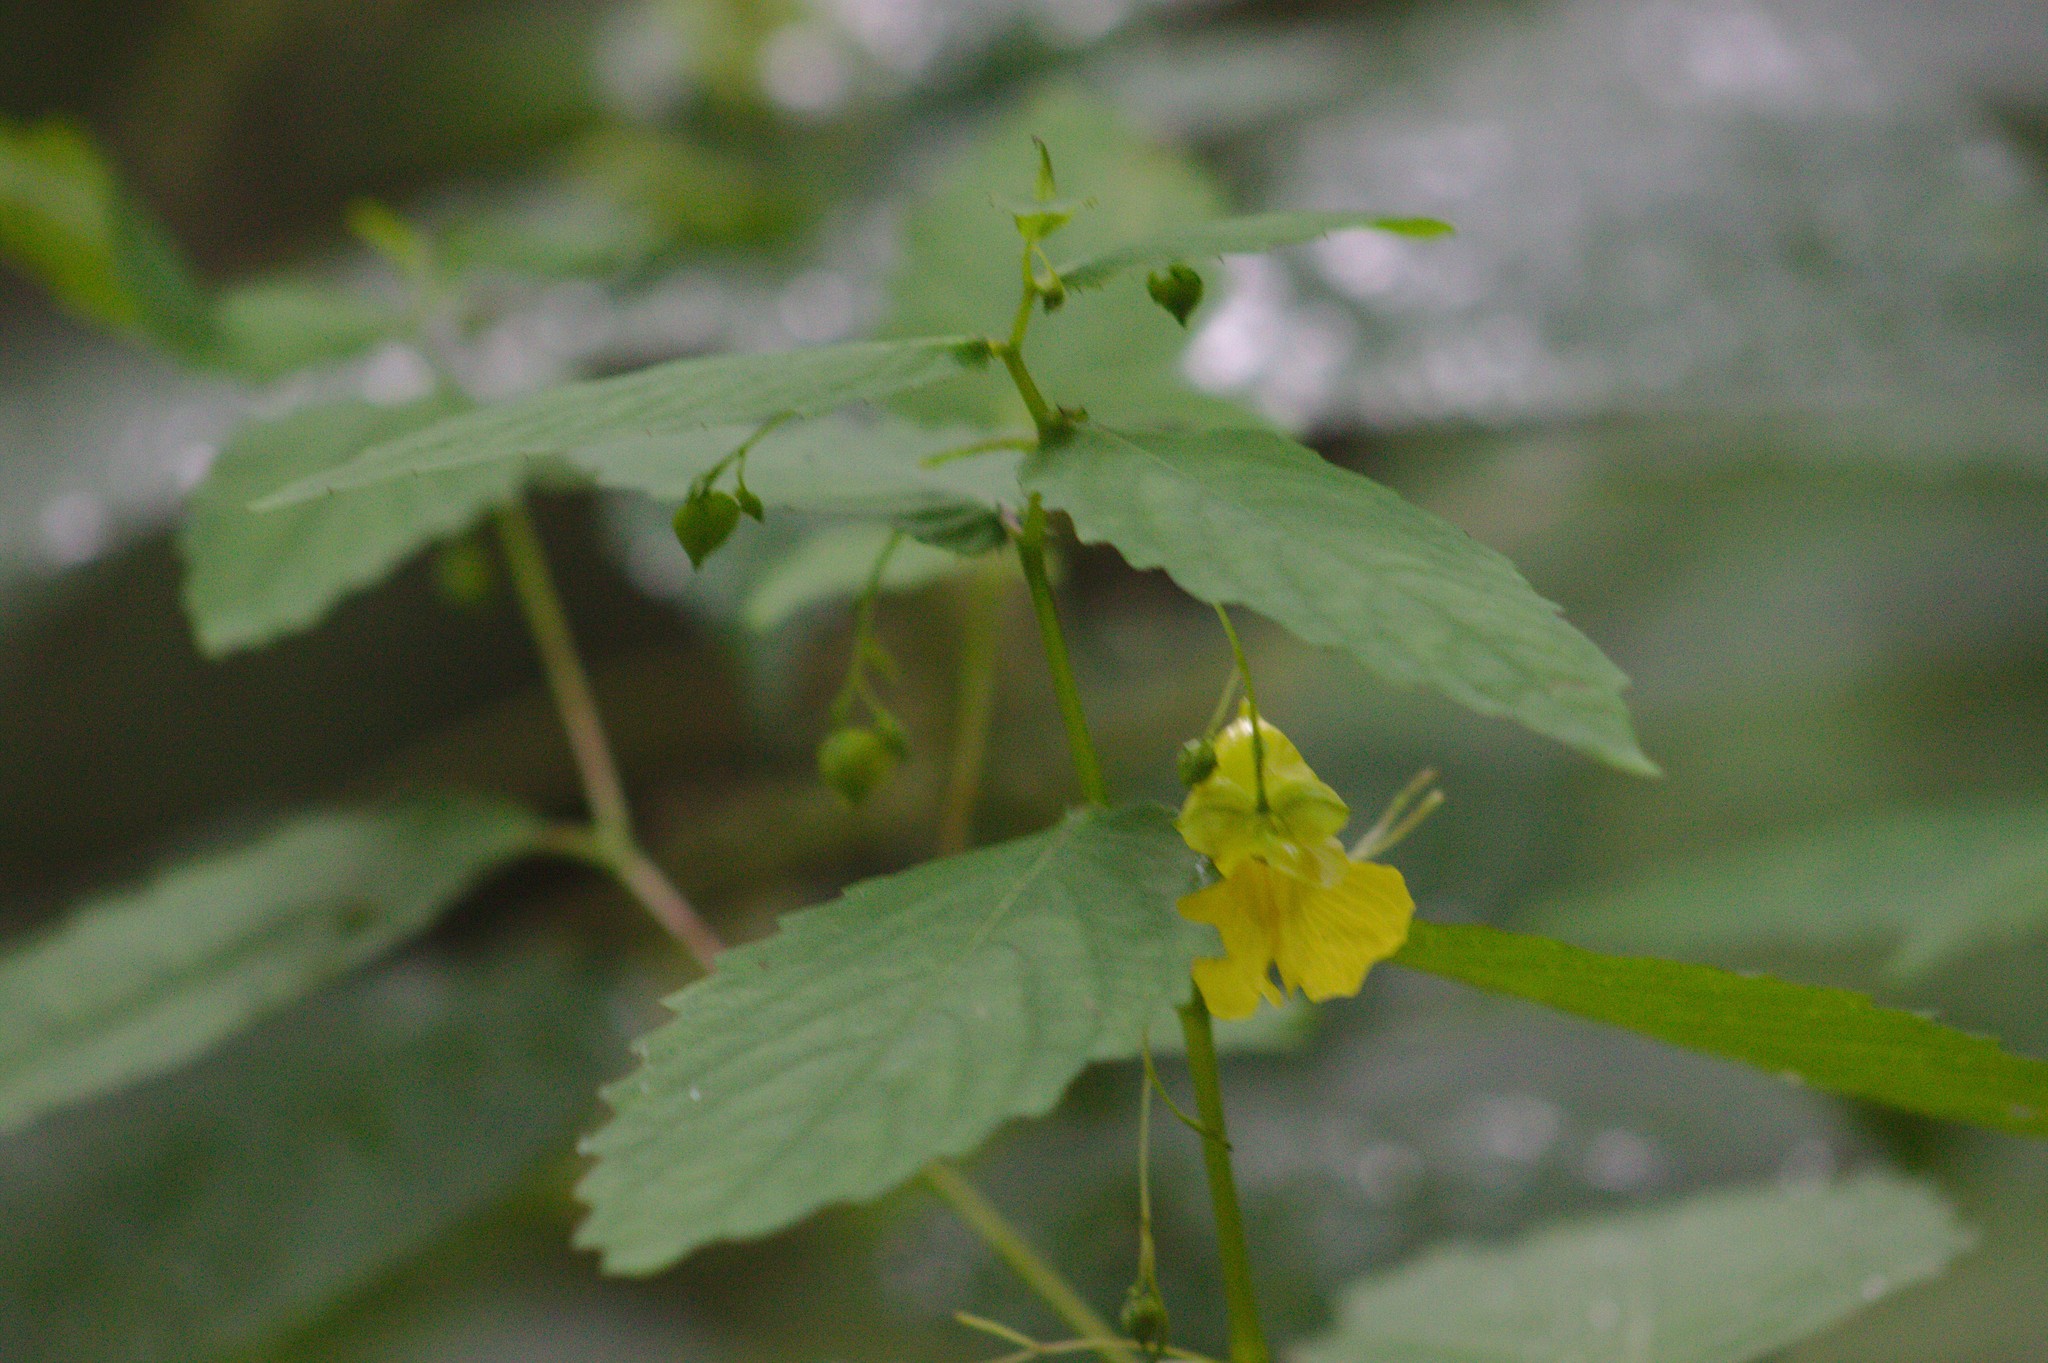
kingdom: Plantae
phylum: Tracheophyta
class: Magnoliopsida
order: Ericales
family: Balsaminaceae
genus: Impatiens
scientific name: Impatiens pallida
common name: Pale snapweed
